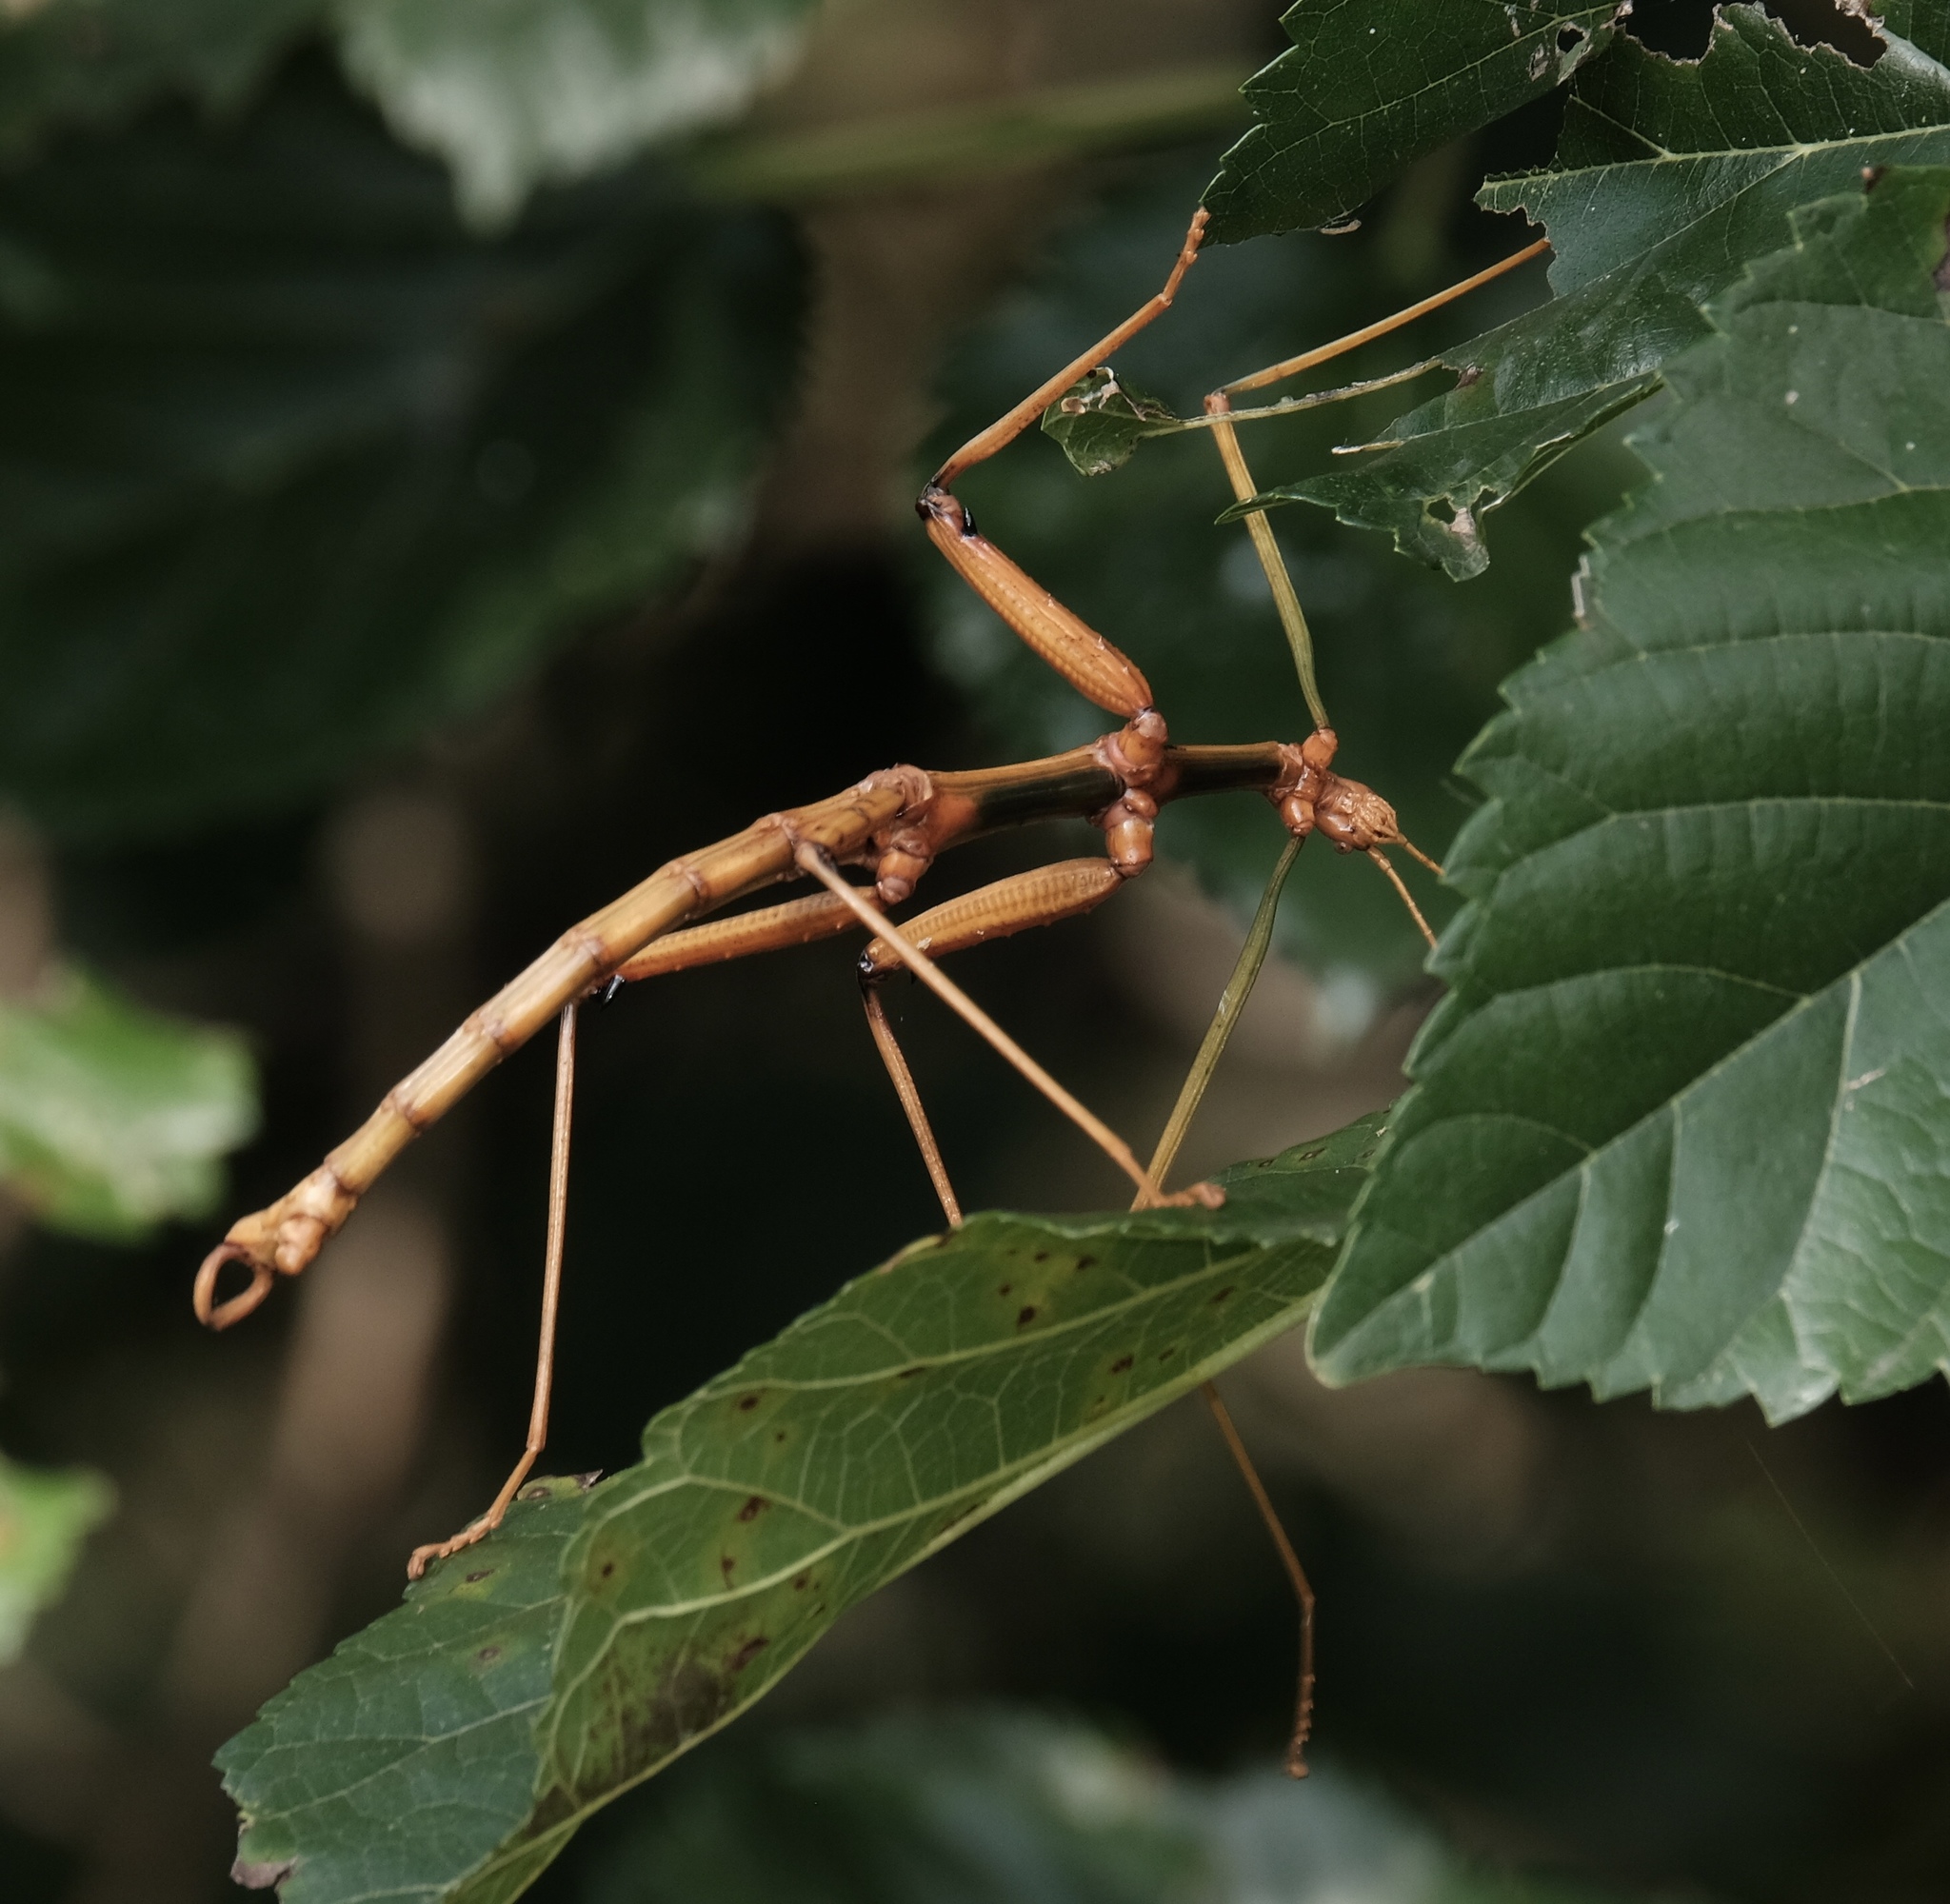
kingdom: Animalia
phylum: Arthropoda
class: Insecta
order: Phasmida
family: Diapheromeridae
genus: Megaphasma
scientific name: Megaphasma denticrus
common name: Giant walkingstick
